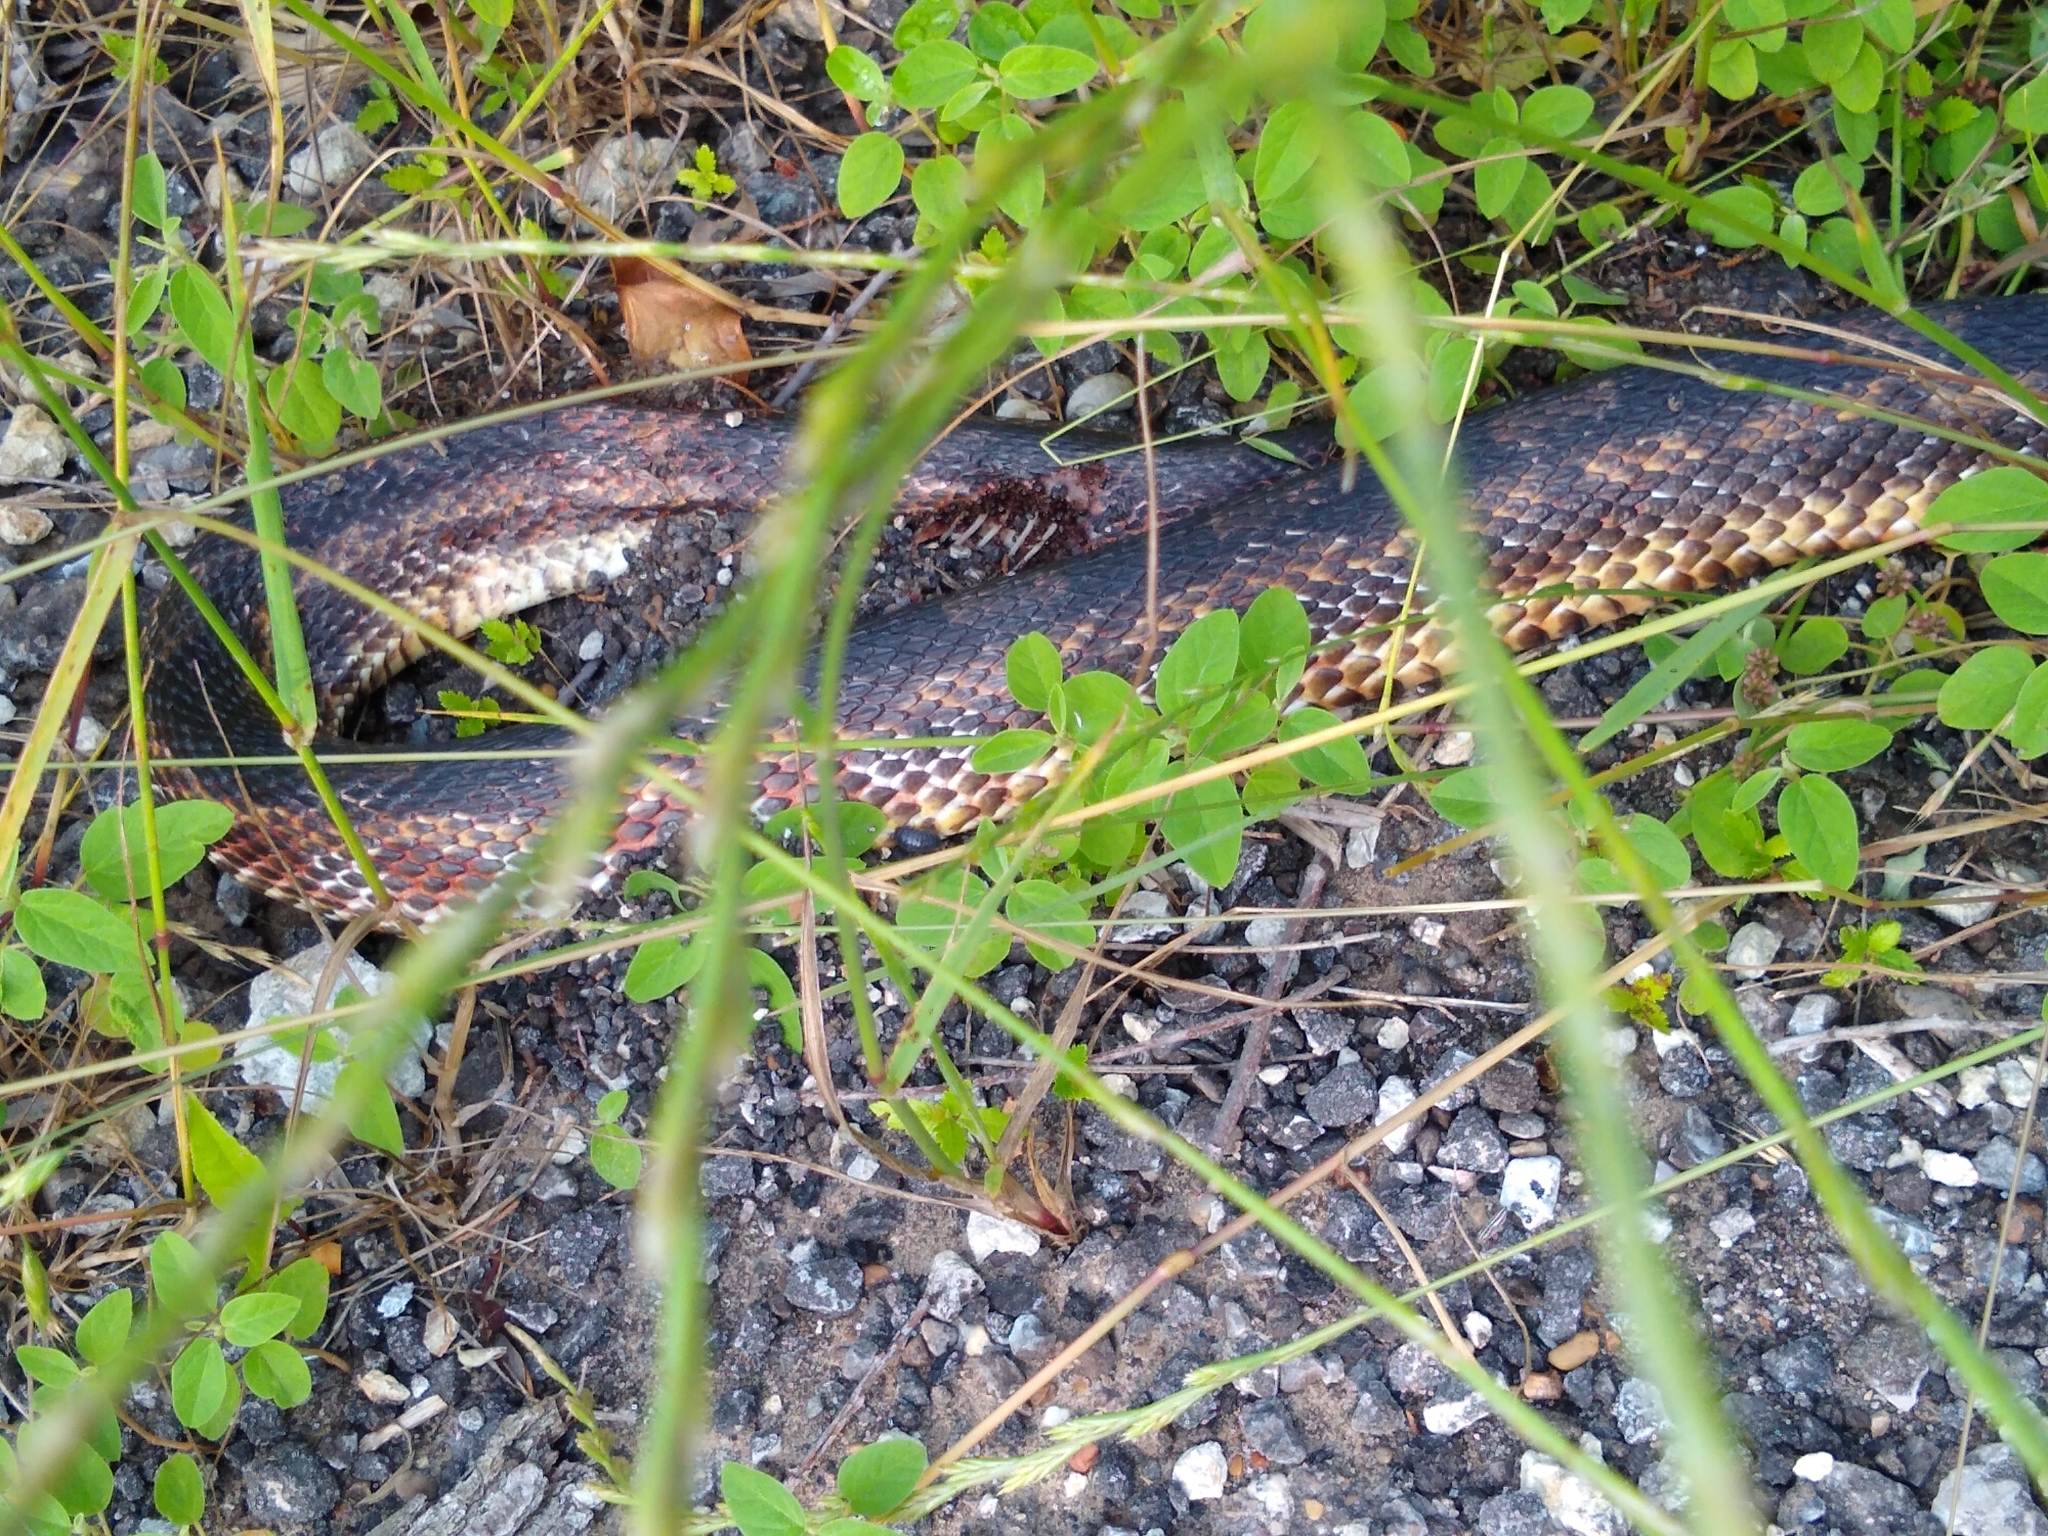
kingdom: Animalia
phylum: Chordata
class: Squamata
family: Colubridae
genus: Pantherophis
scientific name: Pantherophis obsoletus
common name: Black rat snake
